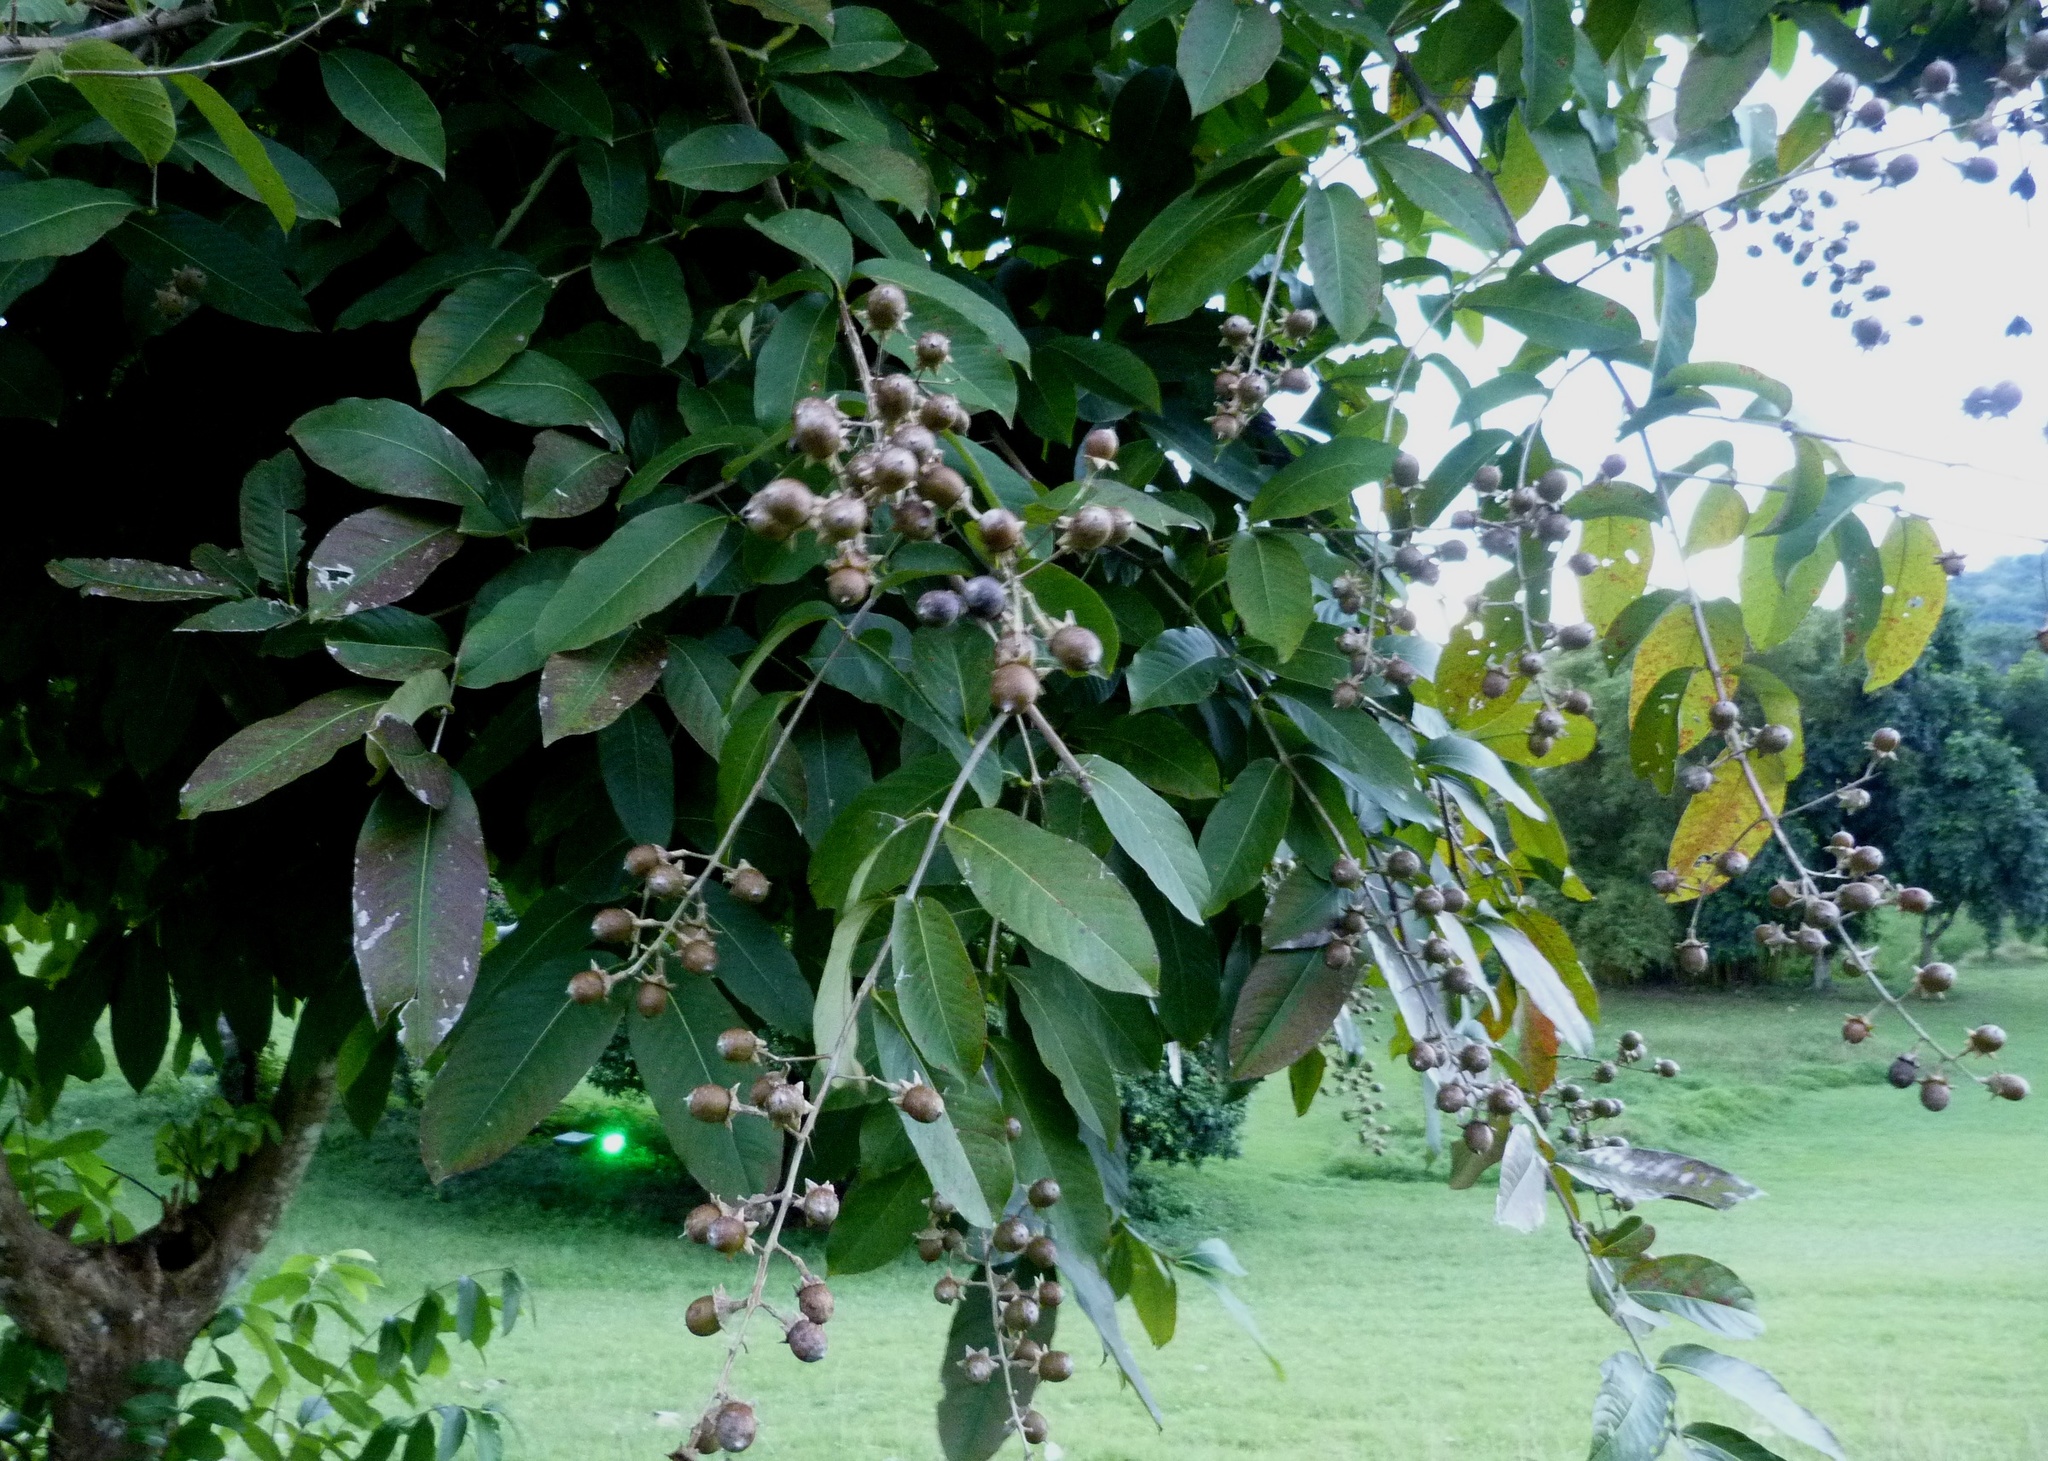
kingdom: Plantae
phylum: Tracheophyta
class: Magnoliopsida
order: Myrtales
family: Lythraceae
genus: Lagerstroemia
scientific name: Lagerstroemia speciosa
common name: Queen's crape-myrtle
